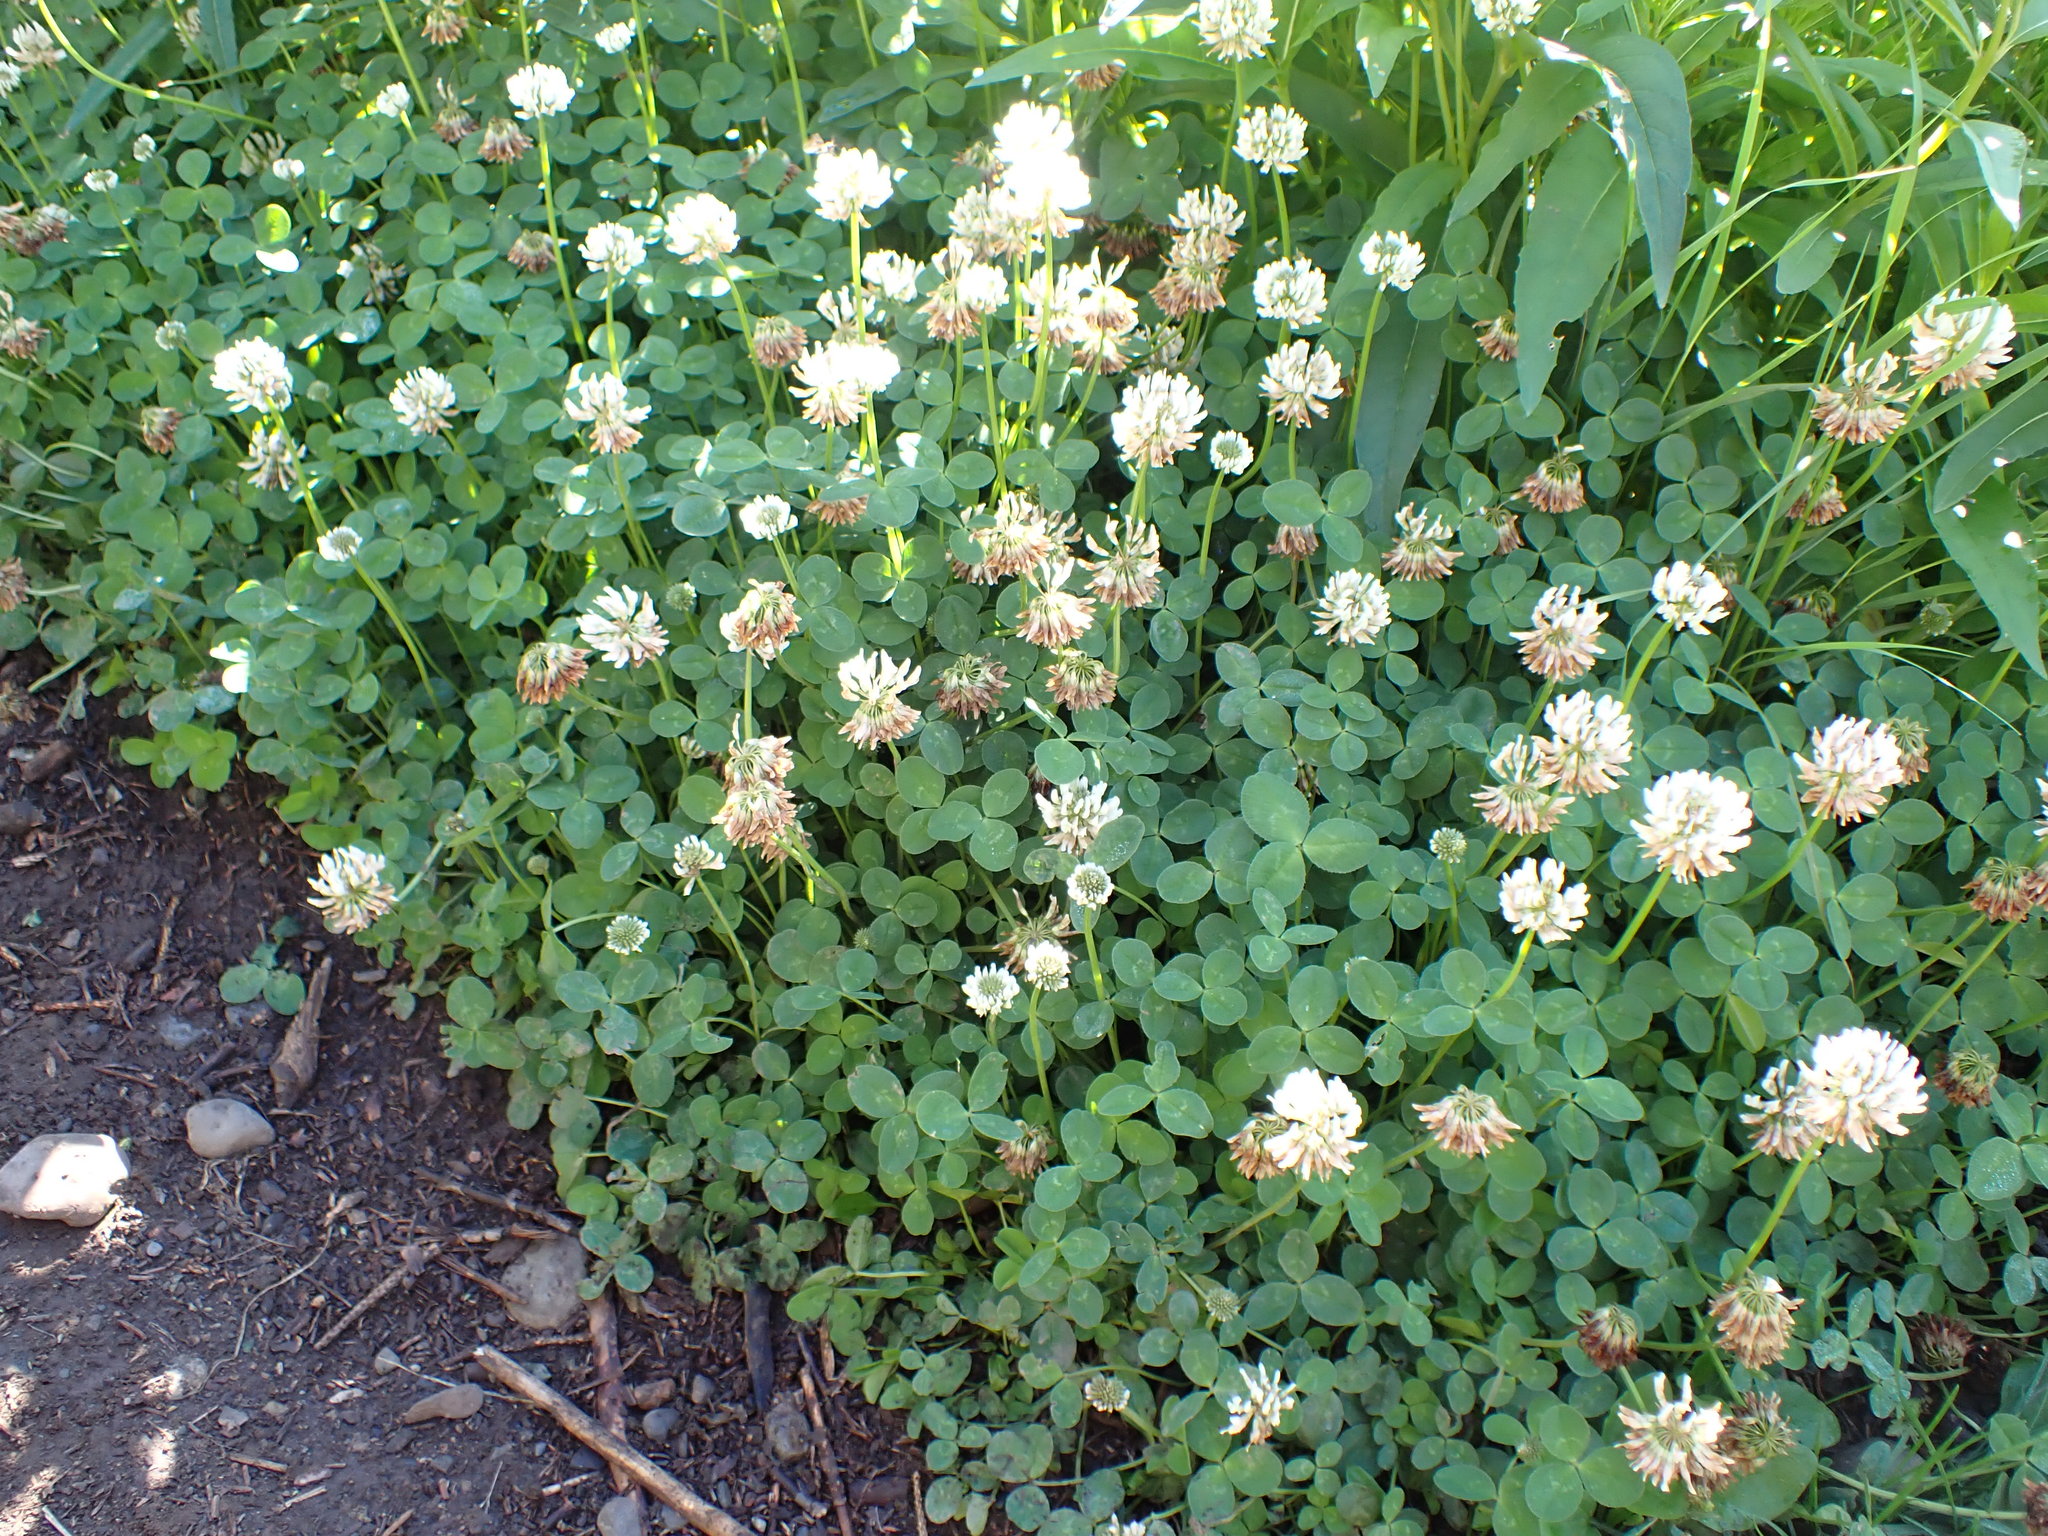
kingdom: Plantae
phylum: Tracheophyta
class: Magnoliopsida
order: Fabales
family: Fabaceae
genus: Trifolium
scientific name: Trifolium repens
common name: White clover
